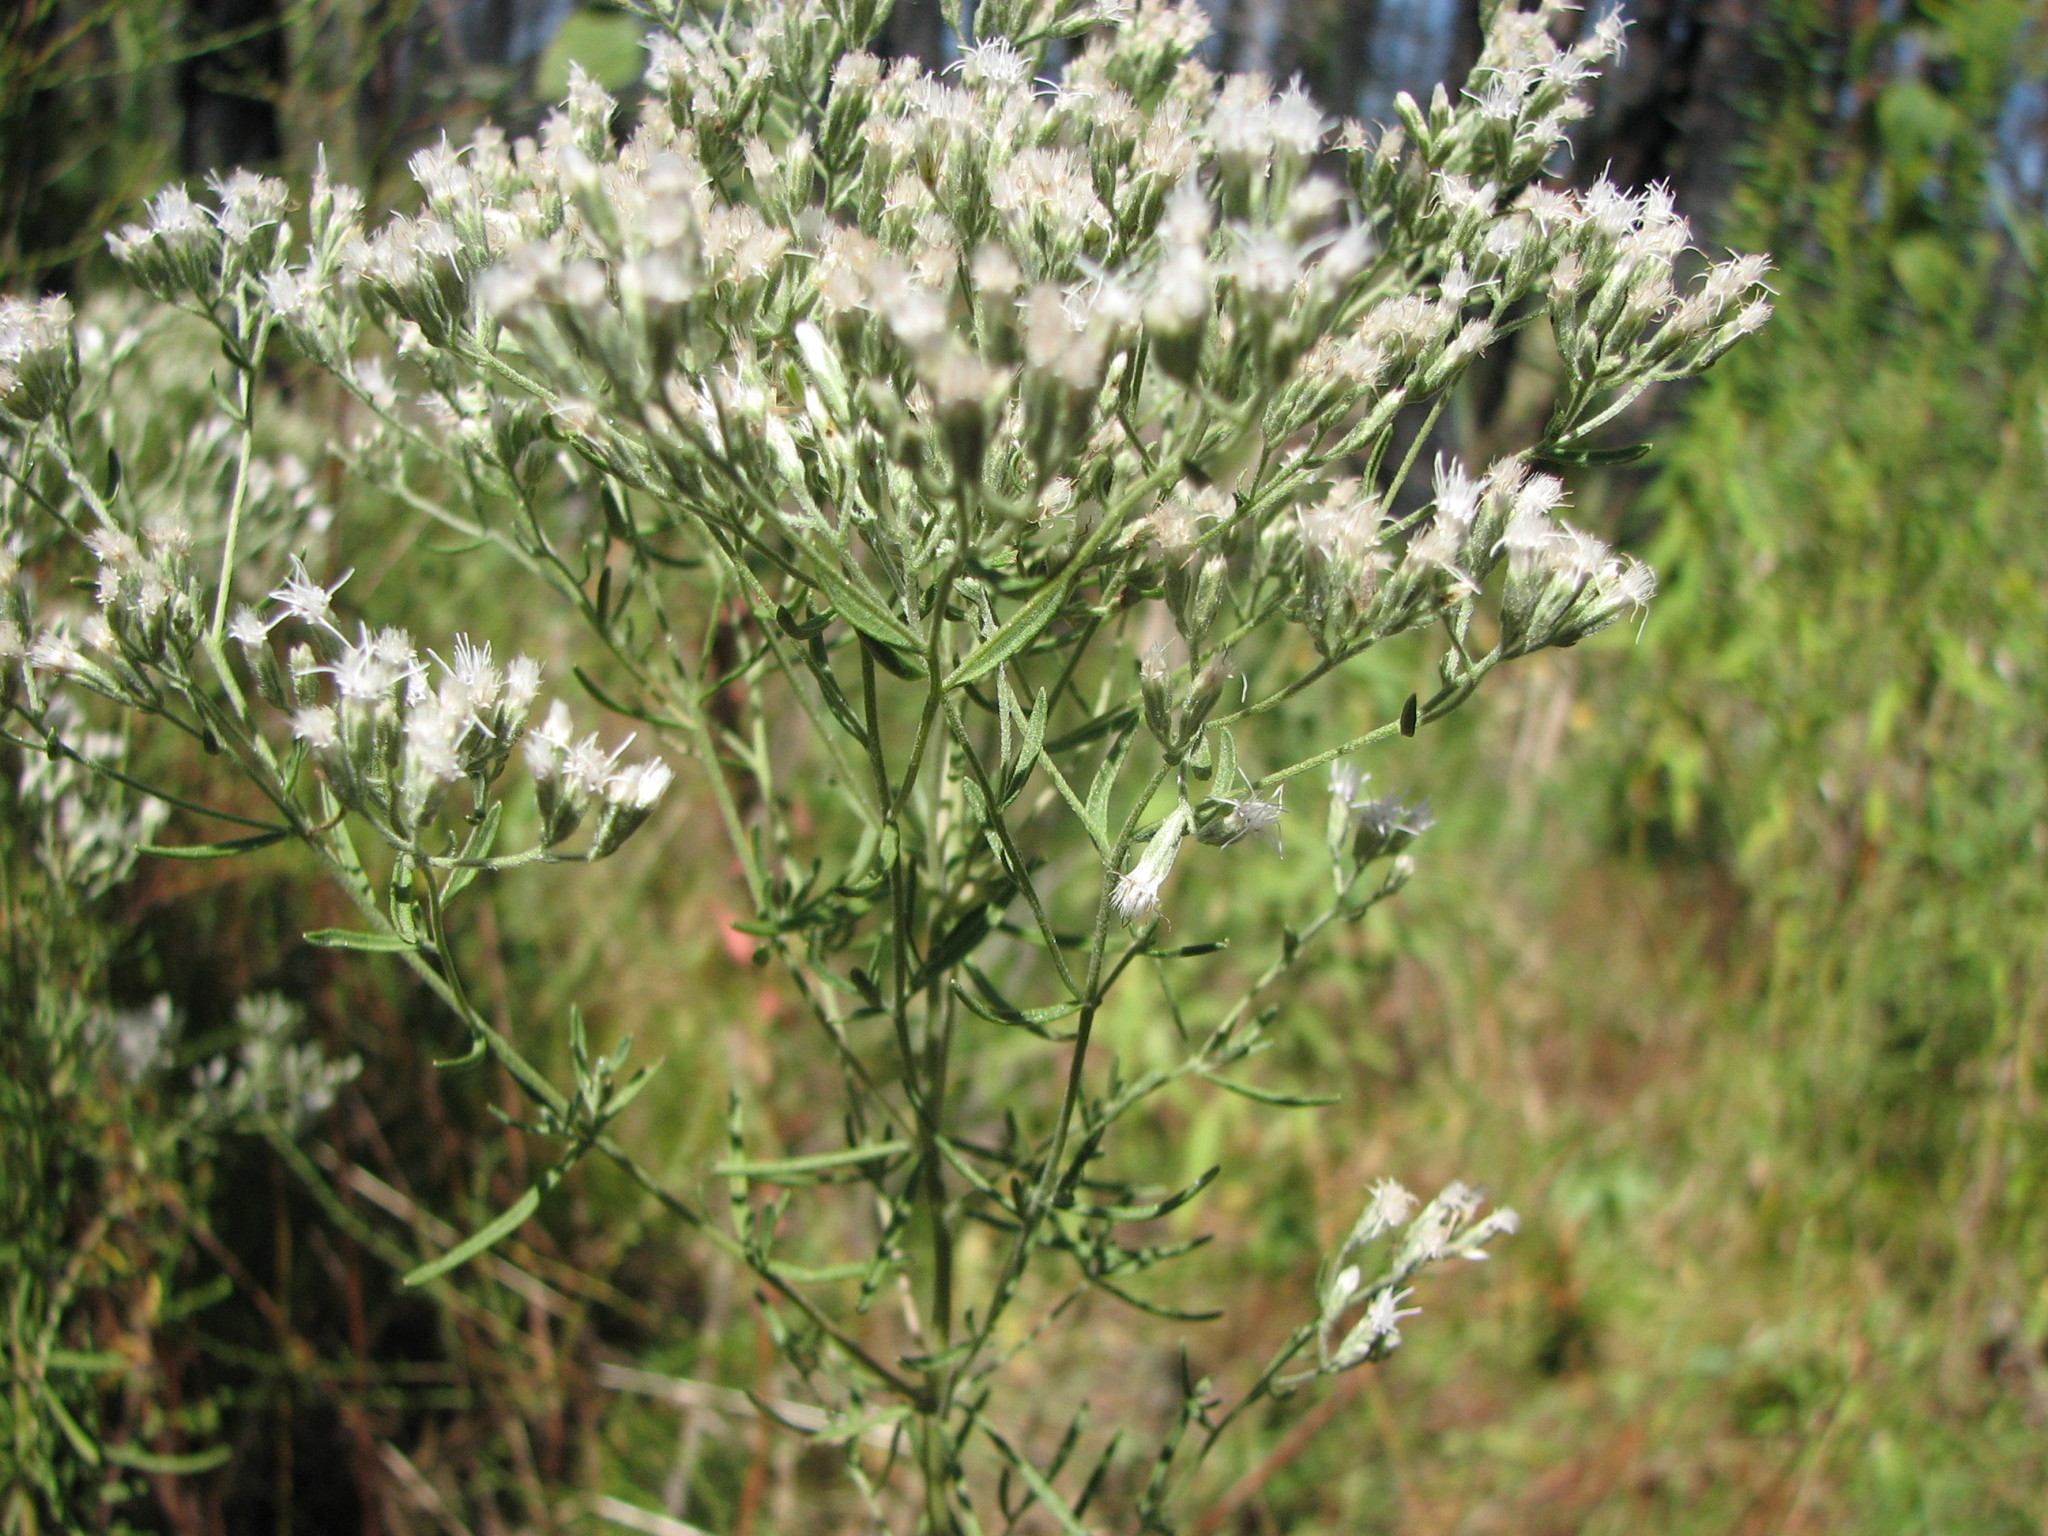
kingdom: Plantae
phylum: Tracheophyta
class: Magnoliopsida
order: Asterales
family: Asteraceae
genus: Eupatorium
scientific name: Eupatorium hyssopifolium
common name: Hyssop-leaf thoroughwort
